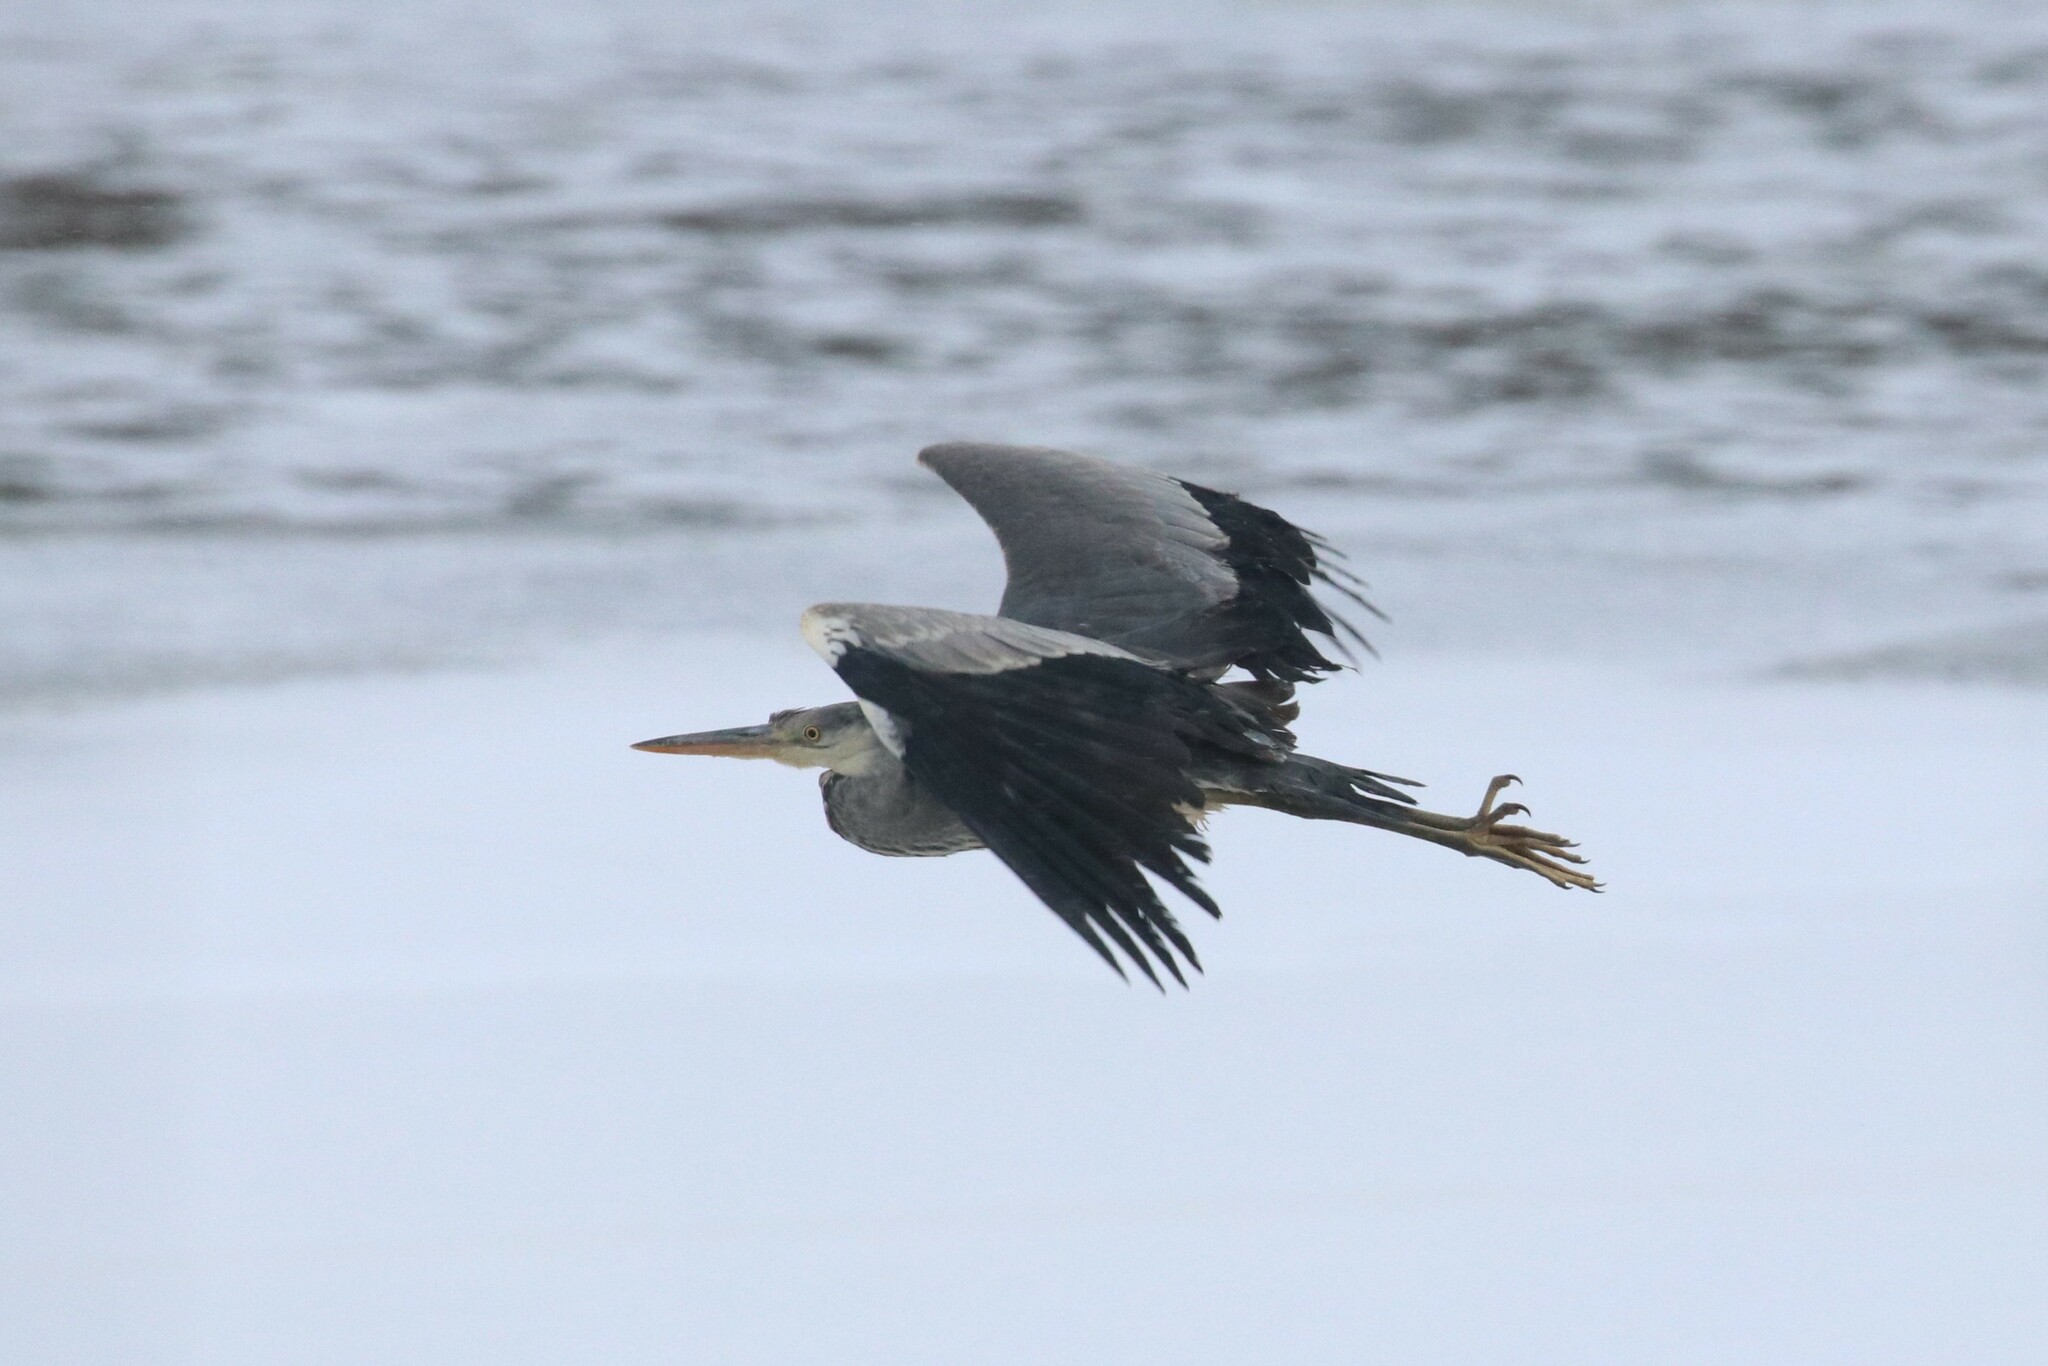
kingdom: Animalia
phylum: Chordata
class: Aves
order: Pelecaniformes
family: Ardeidae
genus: Ardea
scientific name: Ardea cinerea
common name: Grey heron
